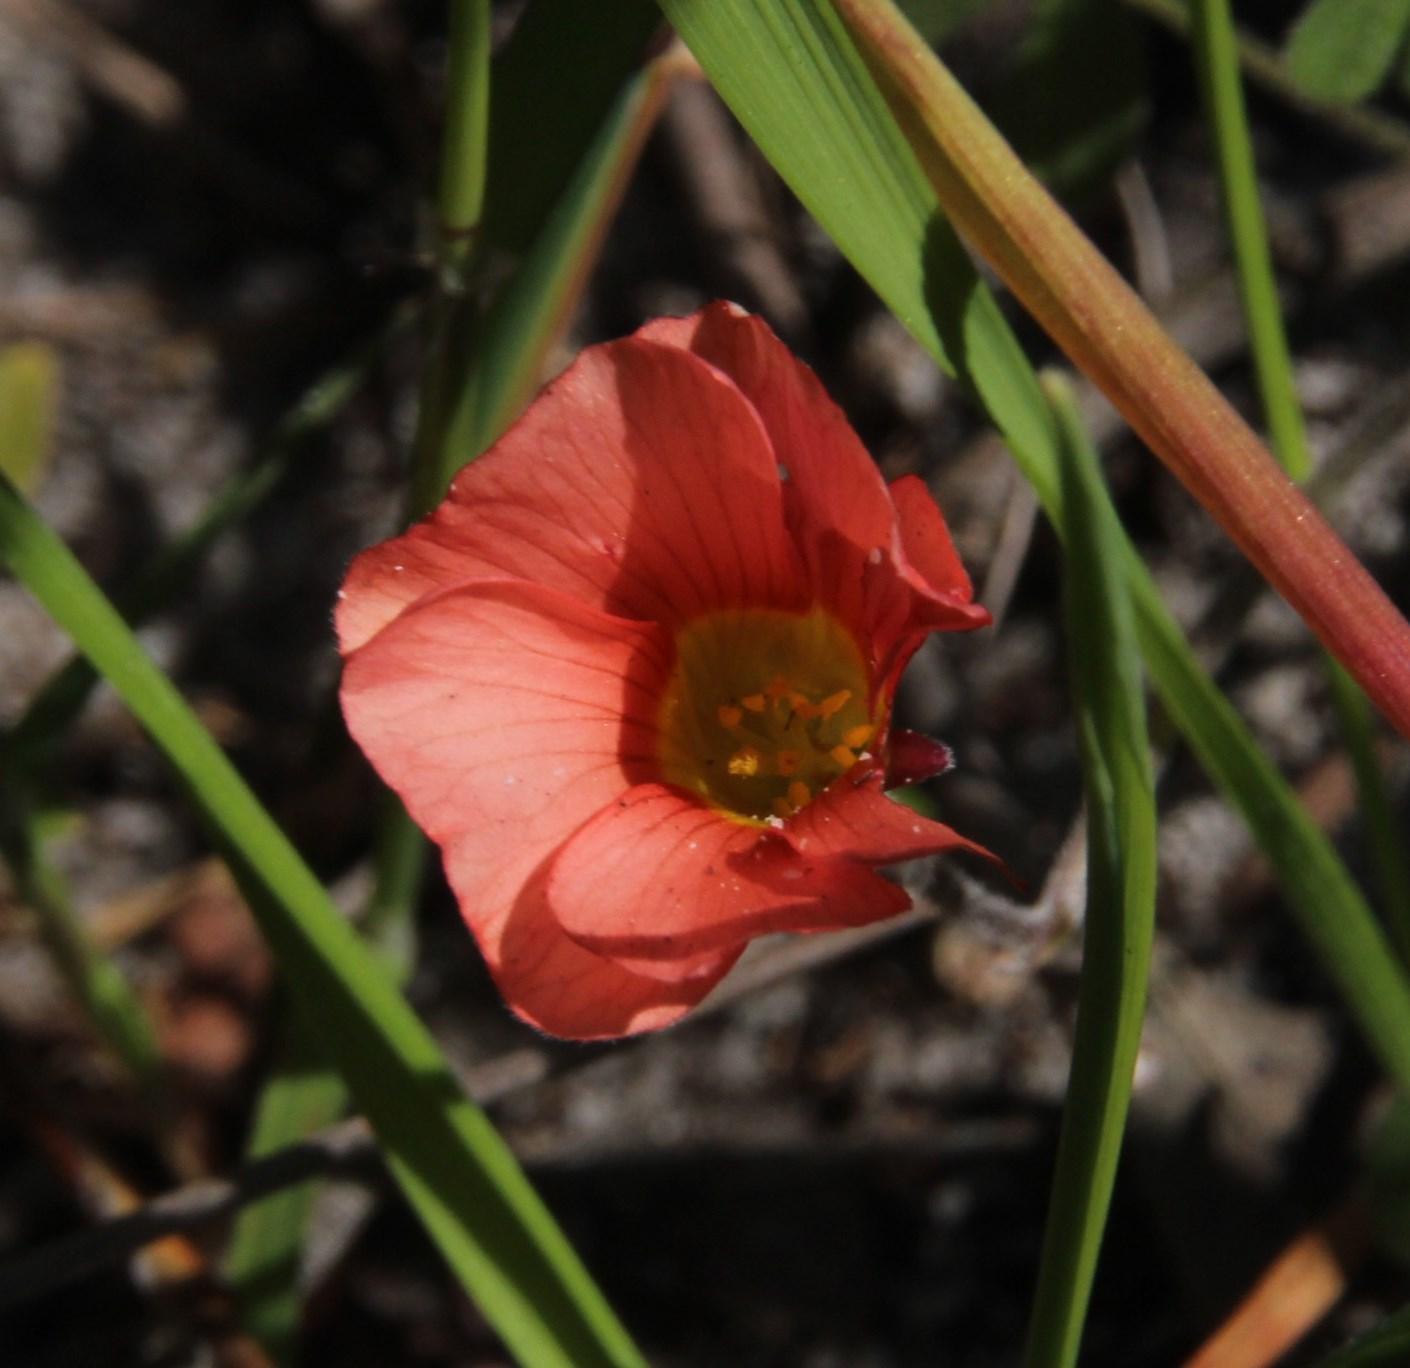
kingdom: Plantae
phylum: Tracheophyta
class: Magnoliopsida
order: Oxalidales
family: Oxalidaceae
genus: Oxalis
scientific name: Oxalis obtusa
